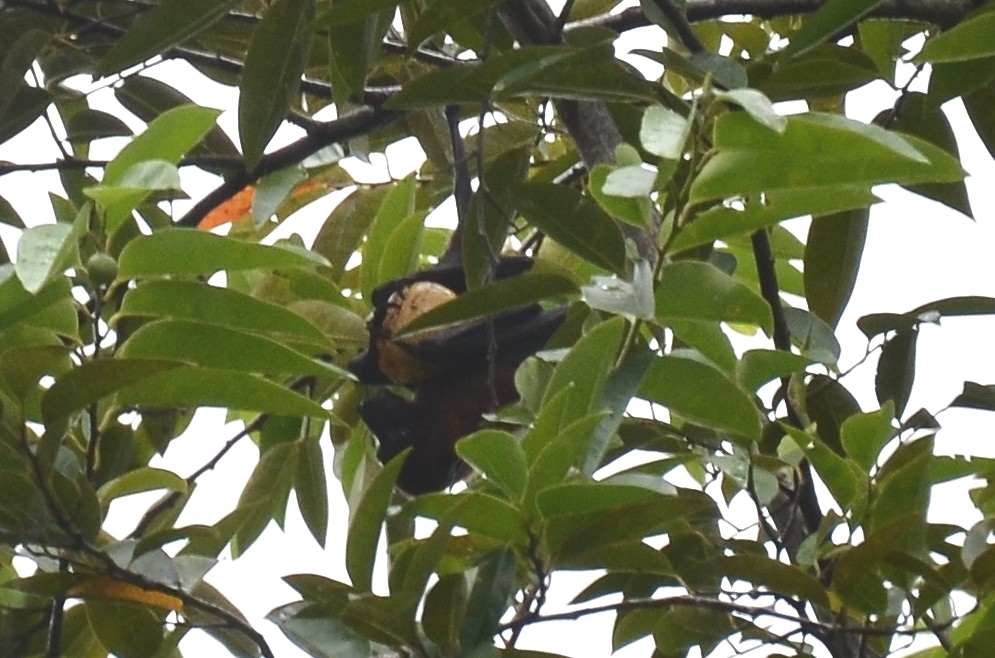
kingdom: Animalia
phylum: Chordata
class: Mammalia
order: Chiroptera
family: Pteropodidae
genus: Pteropus
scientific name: Pteropus vampyrus
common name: Large flying fox
